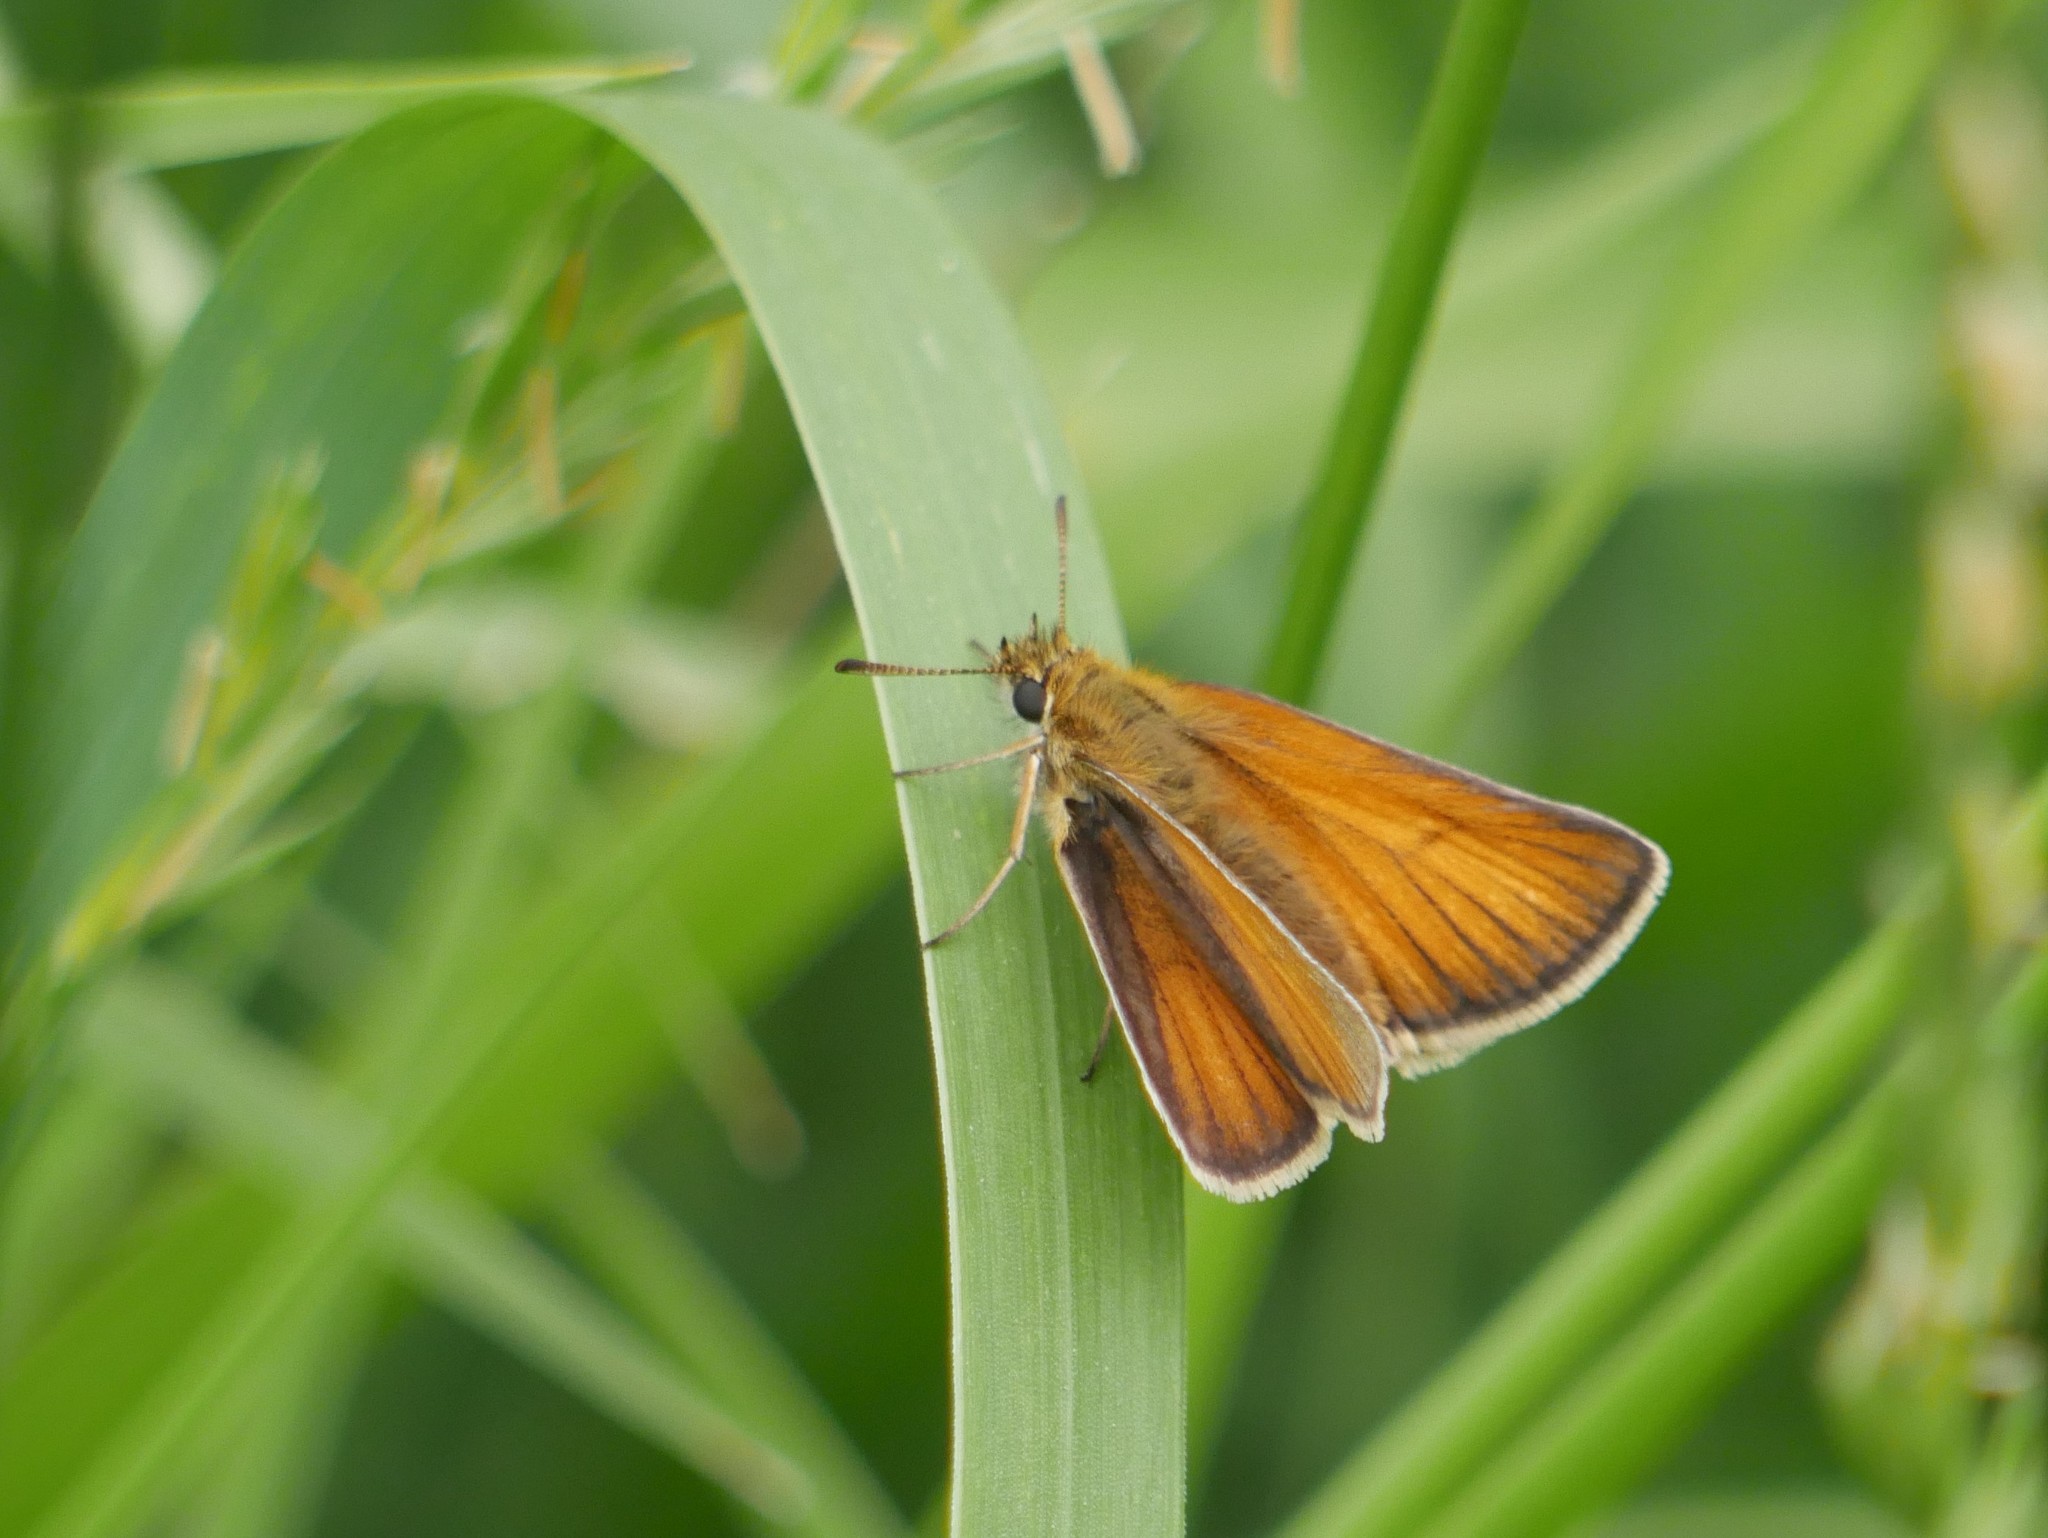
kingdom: Animalia
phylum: Arthropoda
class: Insecta
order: Lepidoptera
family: Hesperiidae
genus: Thymelicus
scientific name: Thymelicus lineola
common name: Essex skipper
